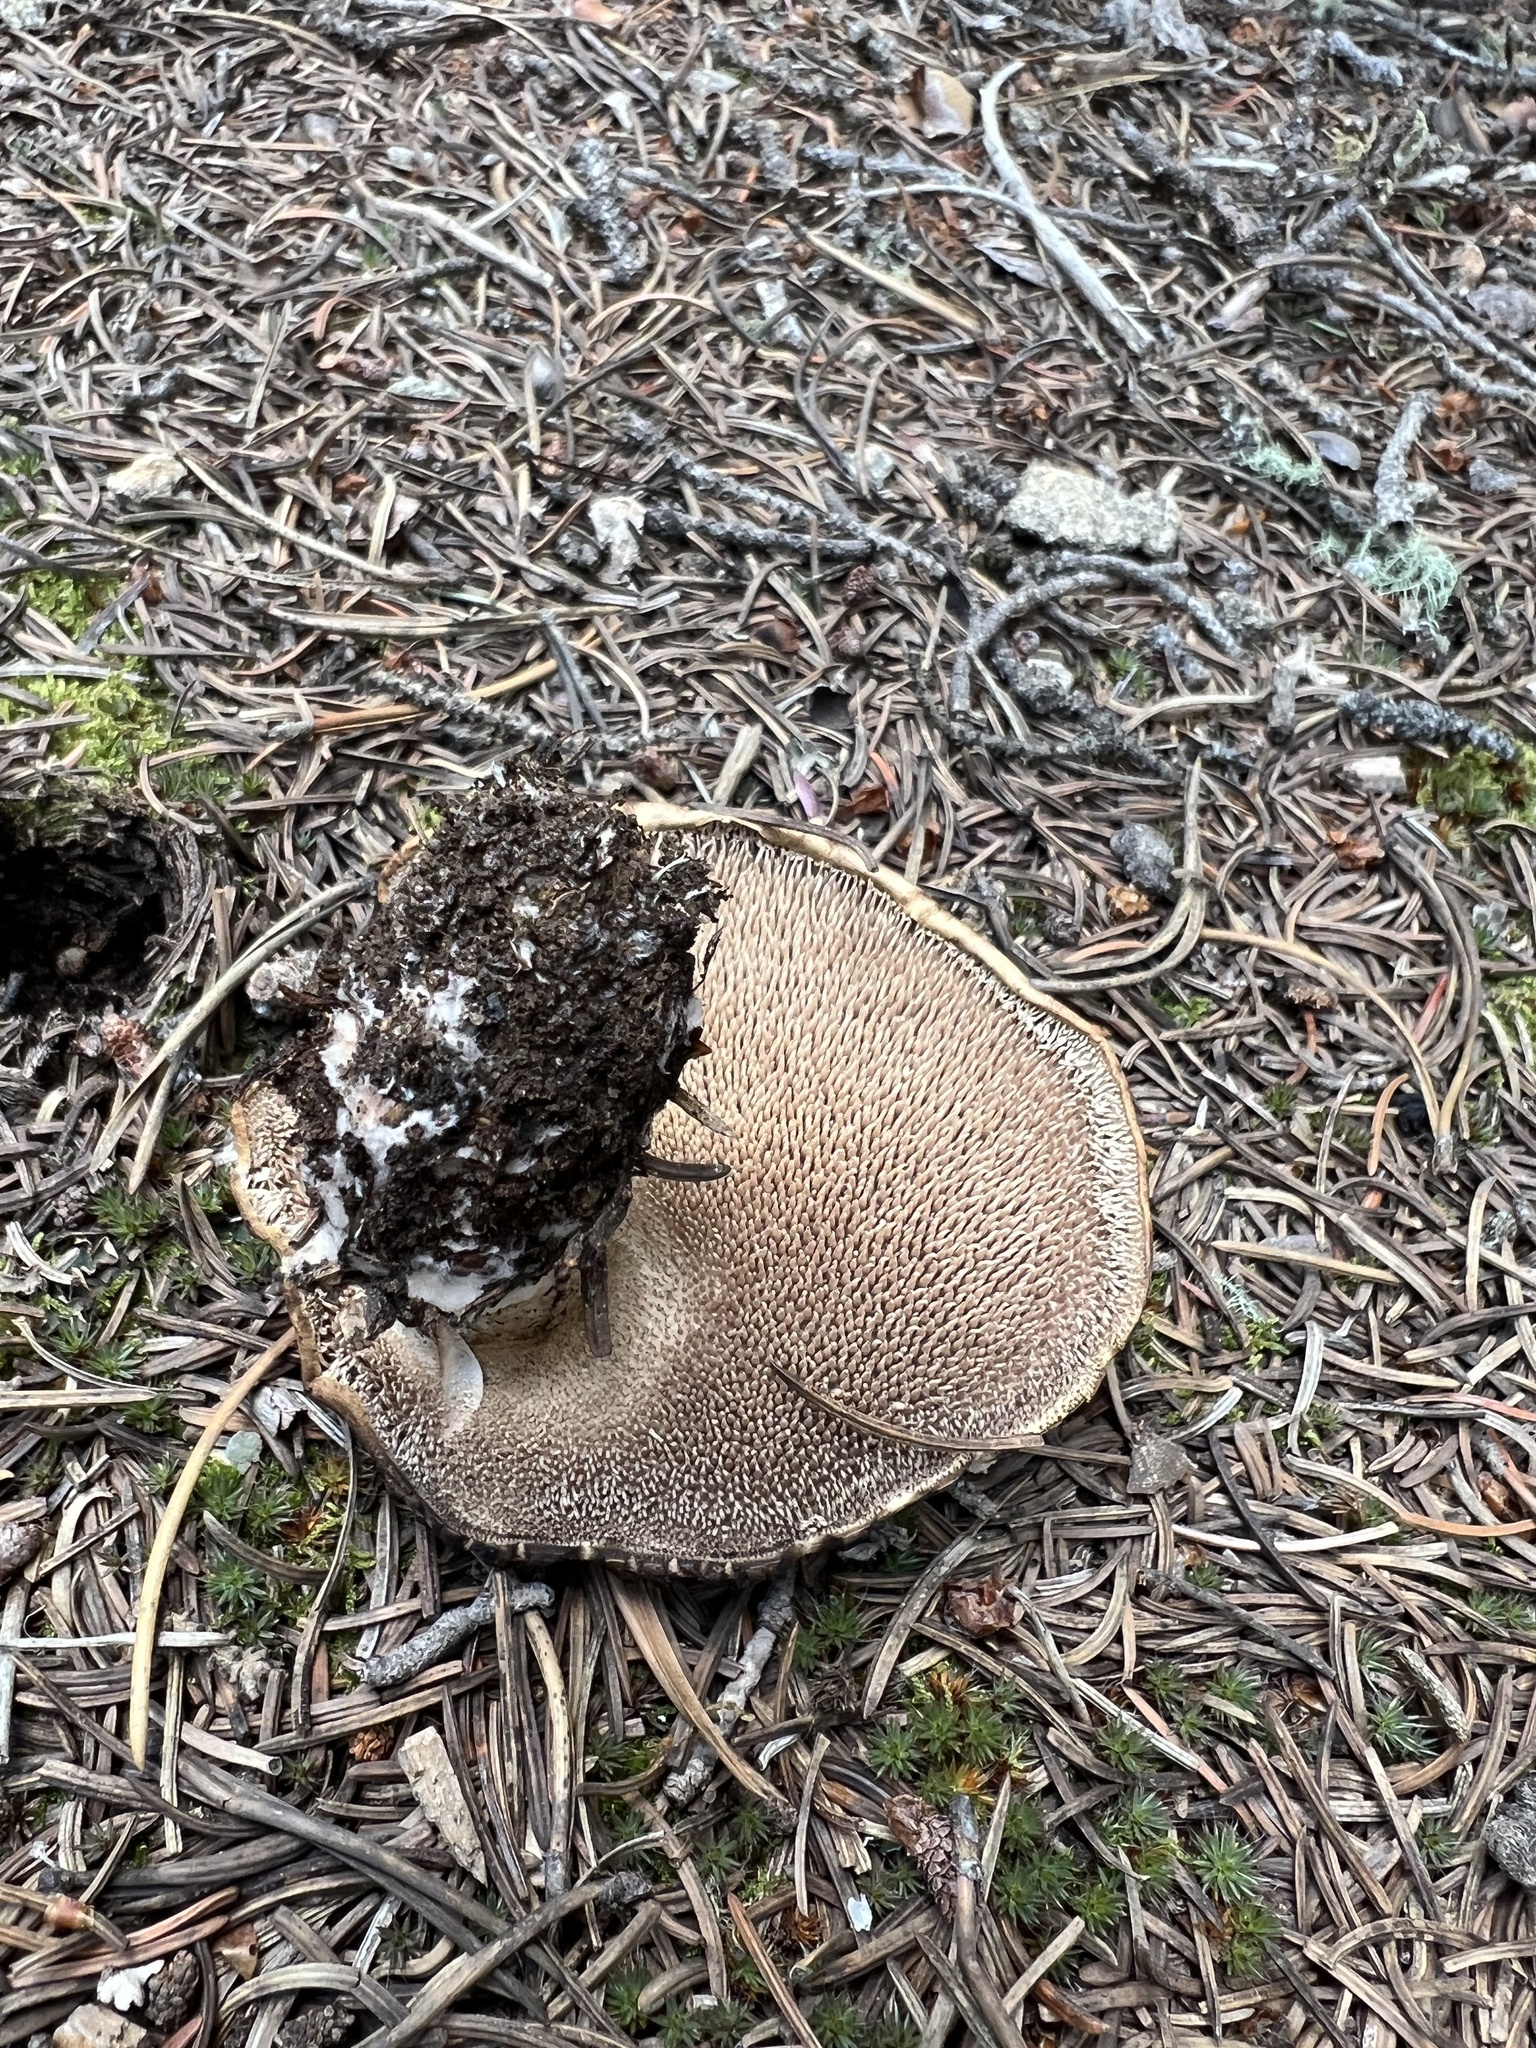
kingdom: Fungi
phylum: Basidiomycota
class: Agaricomycetes
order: Thelephorales
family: Bankeraceae
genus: Sarcodon
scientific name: Sarcodon imbricatus
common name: Shingled hedgehog
